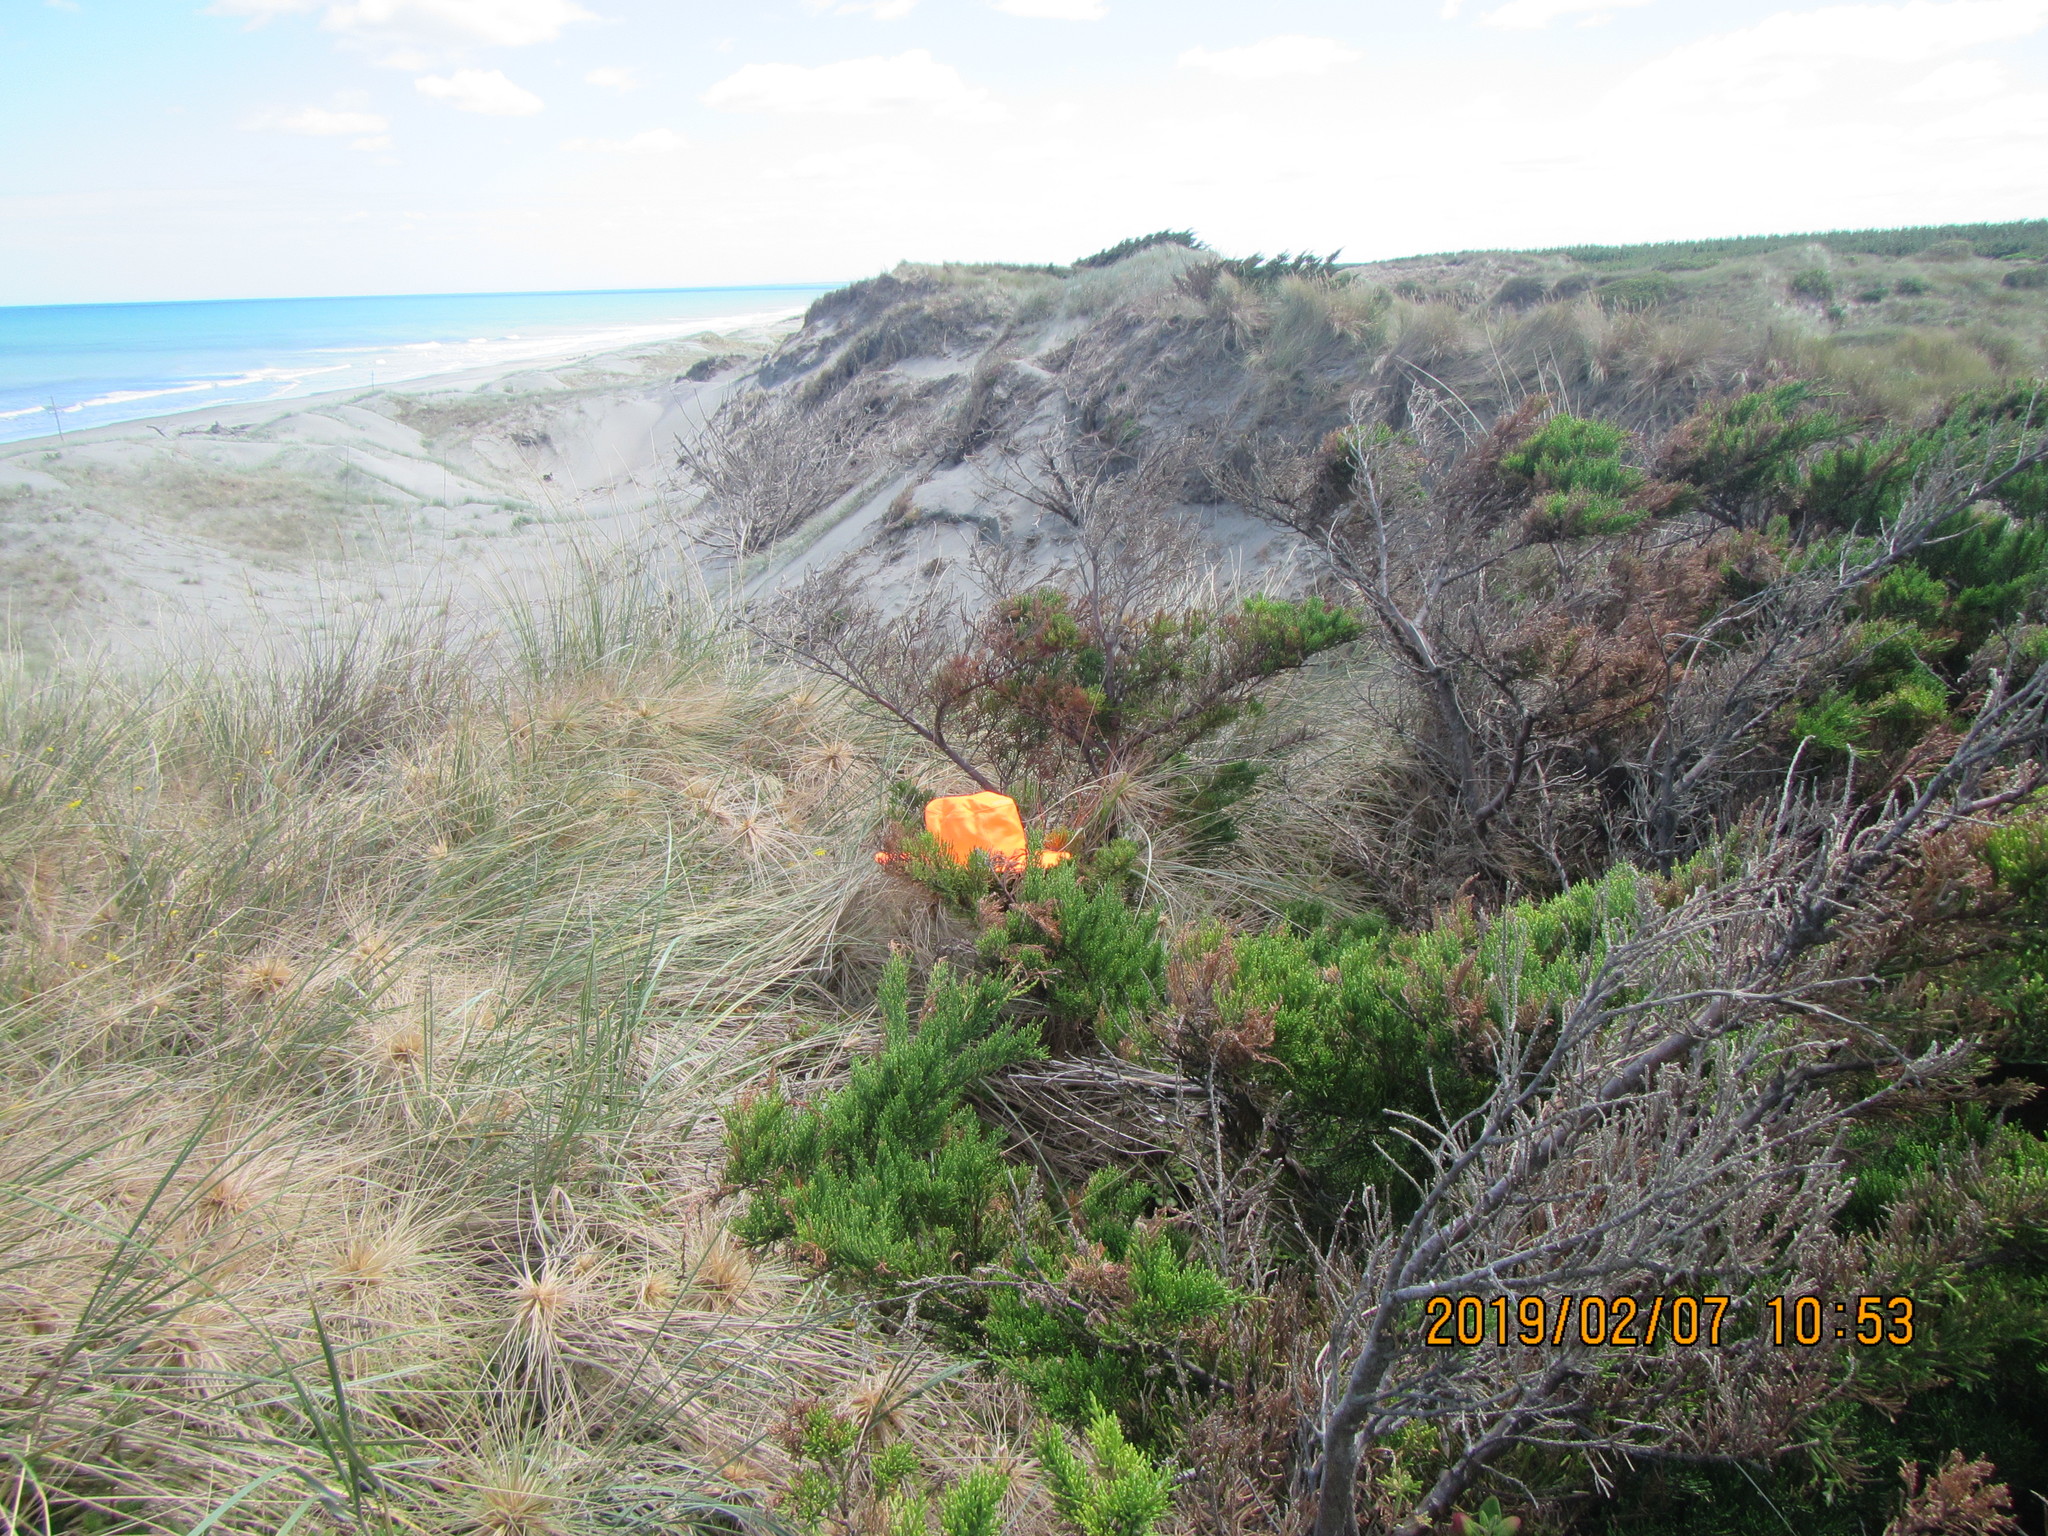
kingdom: Plantae
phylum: Tracheophyta
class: Pinopsida
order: Pinales
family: Cupressaceae
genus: Cupressus
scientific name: Cupressus macrocarpa
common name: Monterey cypress
